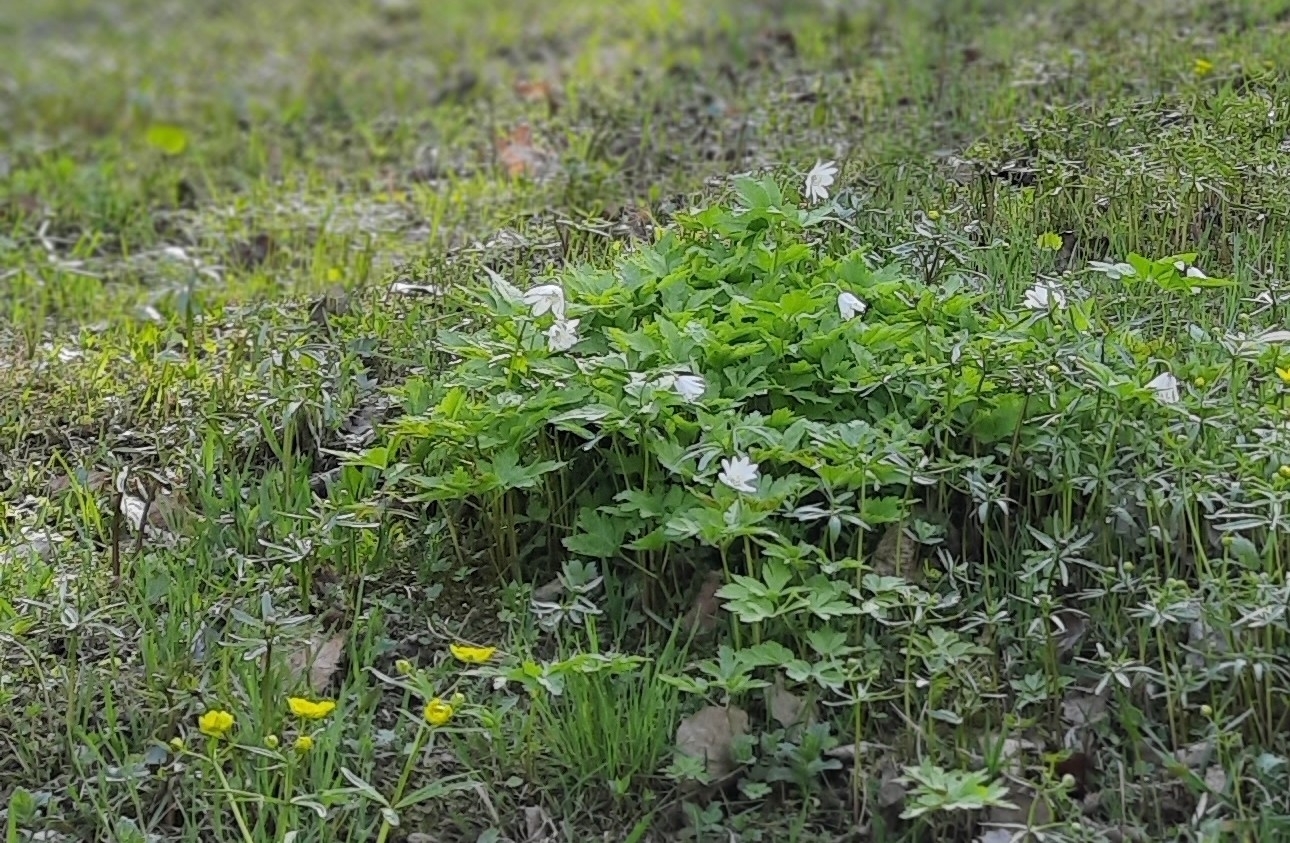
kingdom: Plantae
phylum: Tracheophyta
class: Magnoliopsida
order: Ranunculales
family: Ranunculaceae
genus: Anemone
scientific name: Anemone altaica
